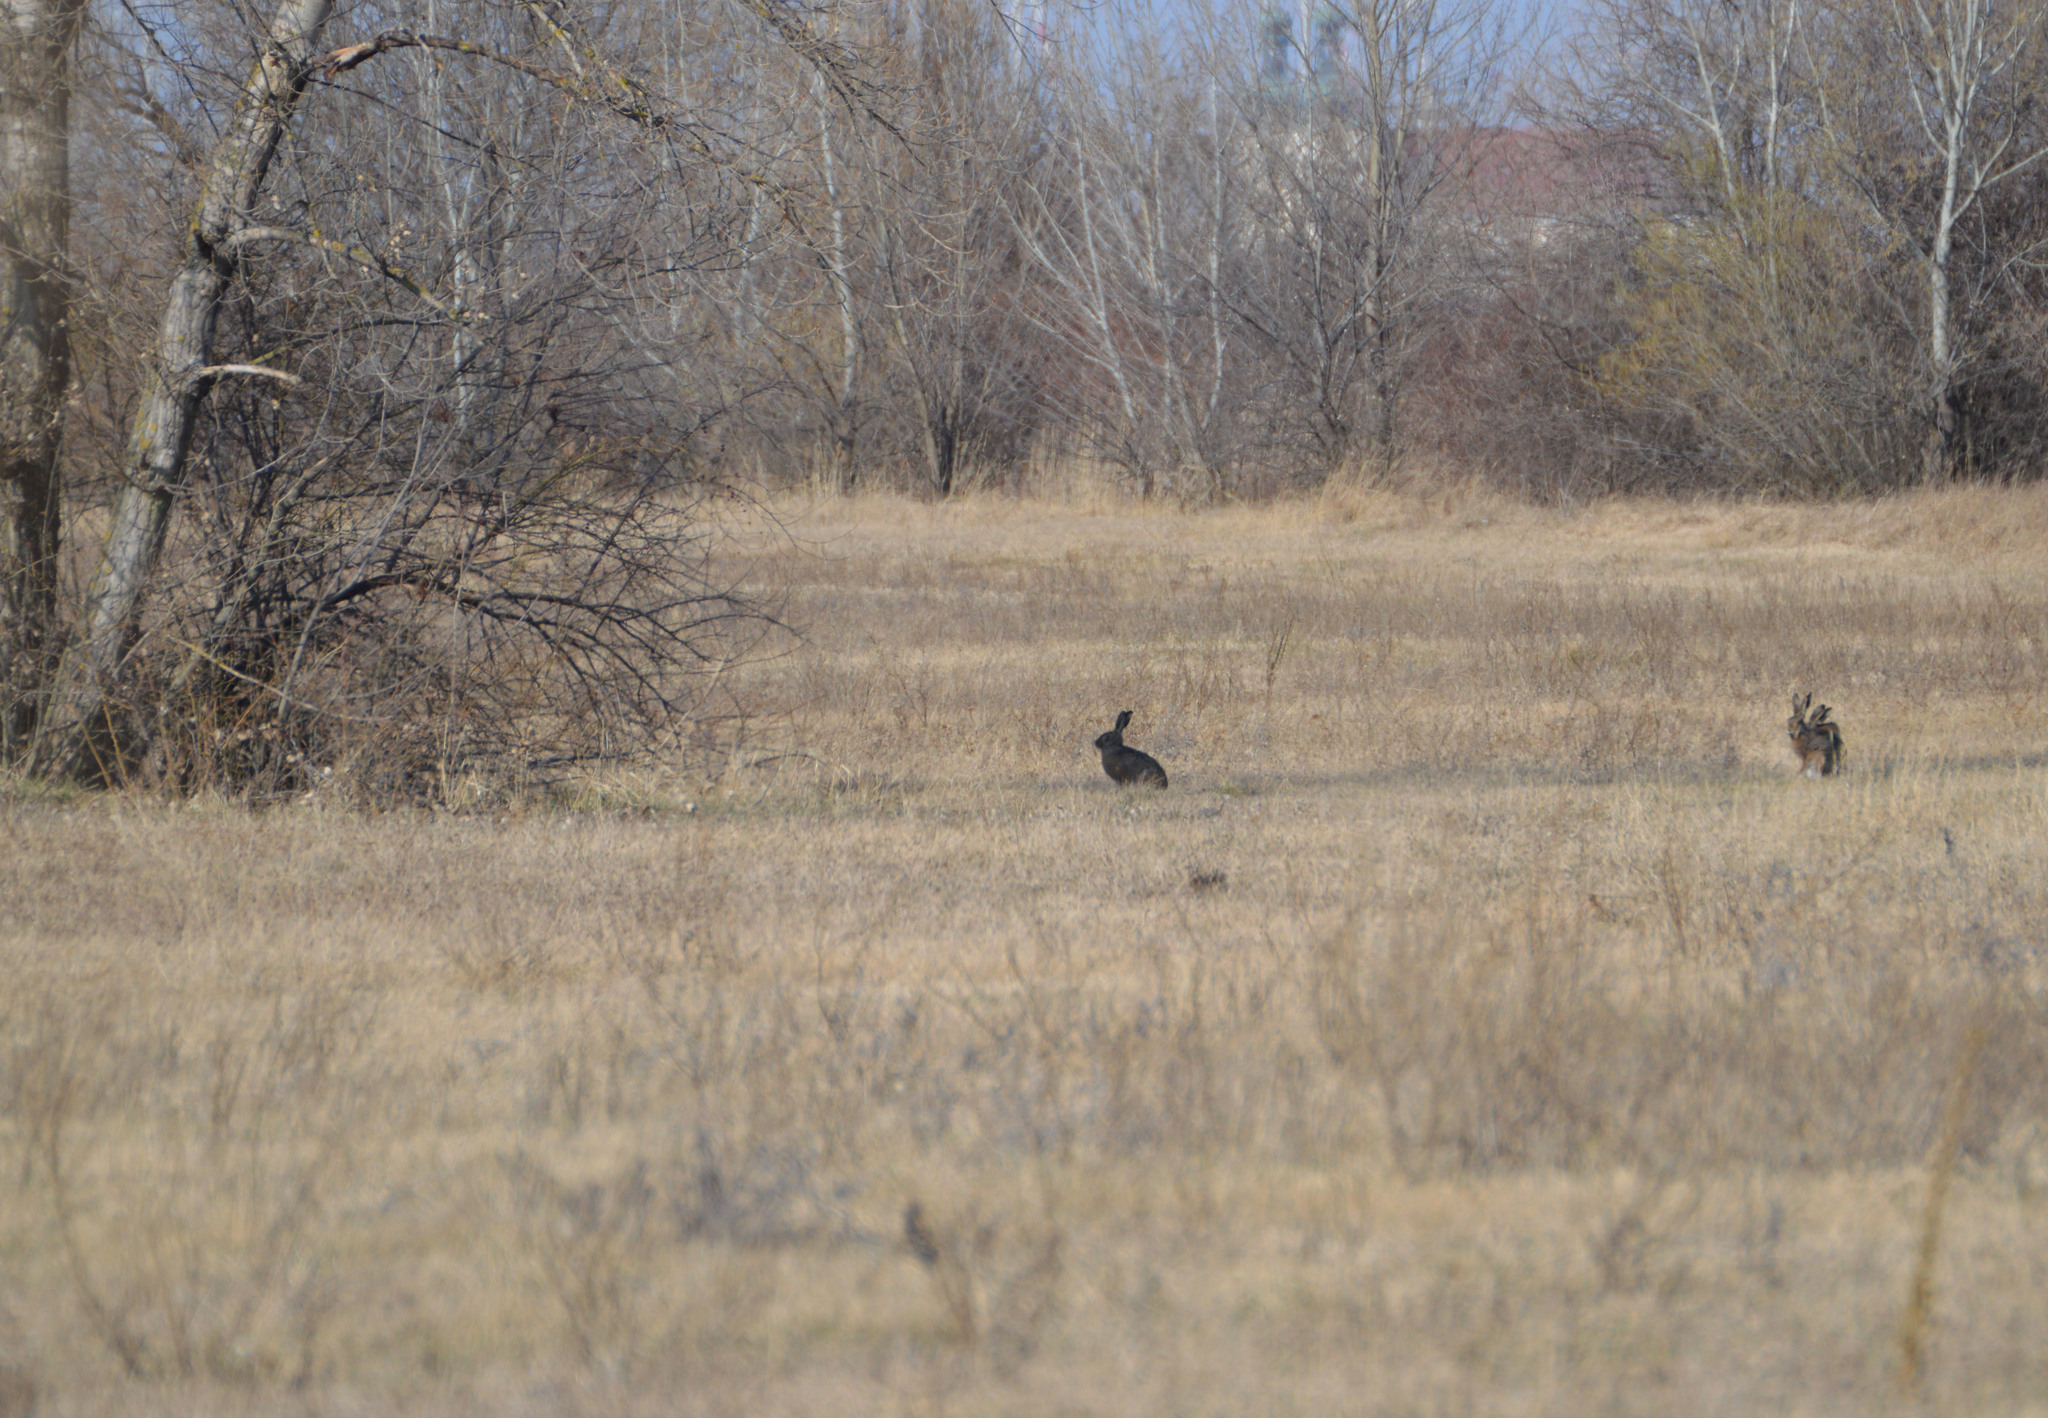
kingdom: Animalia
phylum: Chordata
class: Mammalia
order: Lagomorpha
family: Leporidae
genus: Lepus
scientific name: Lepus europaeus
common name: European hare
